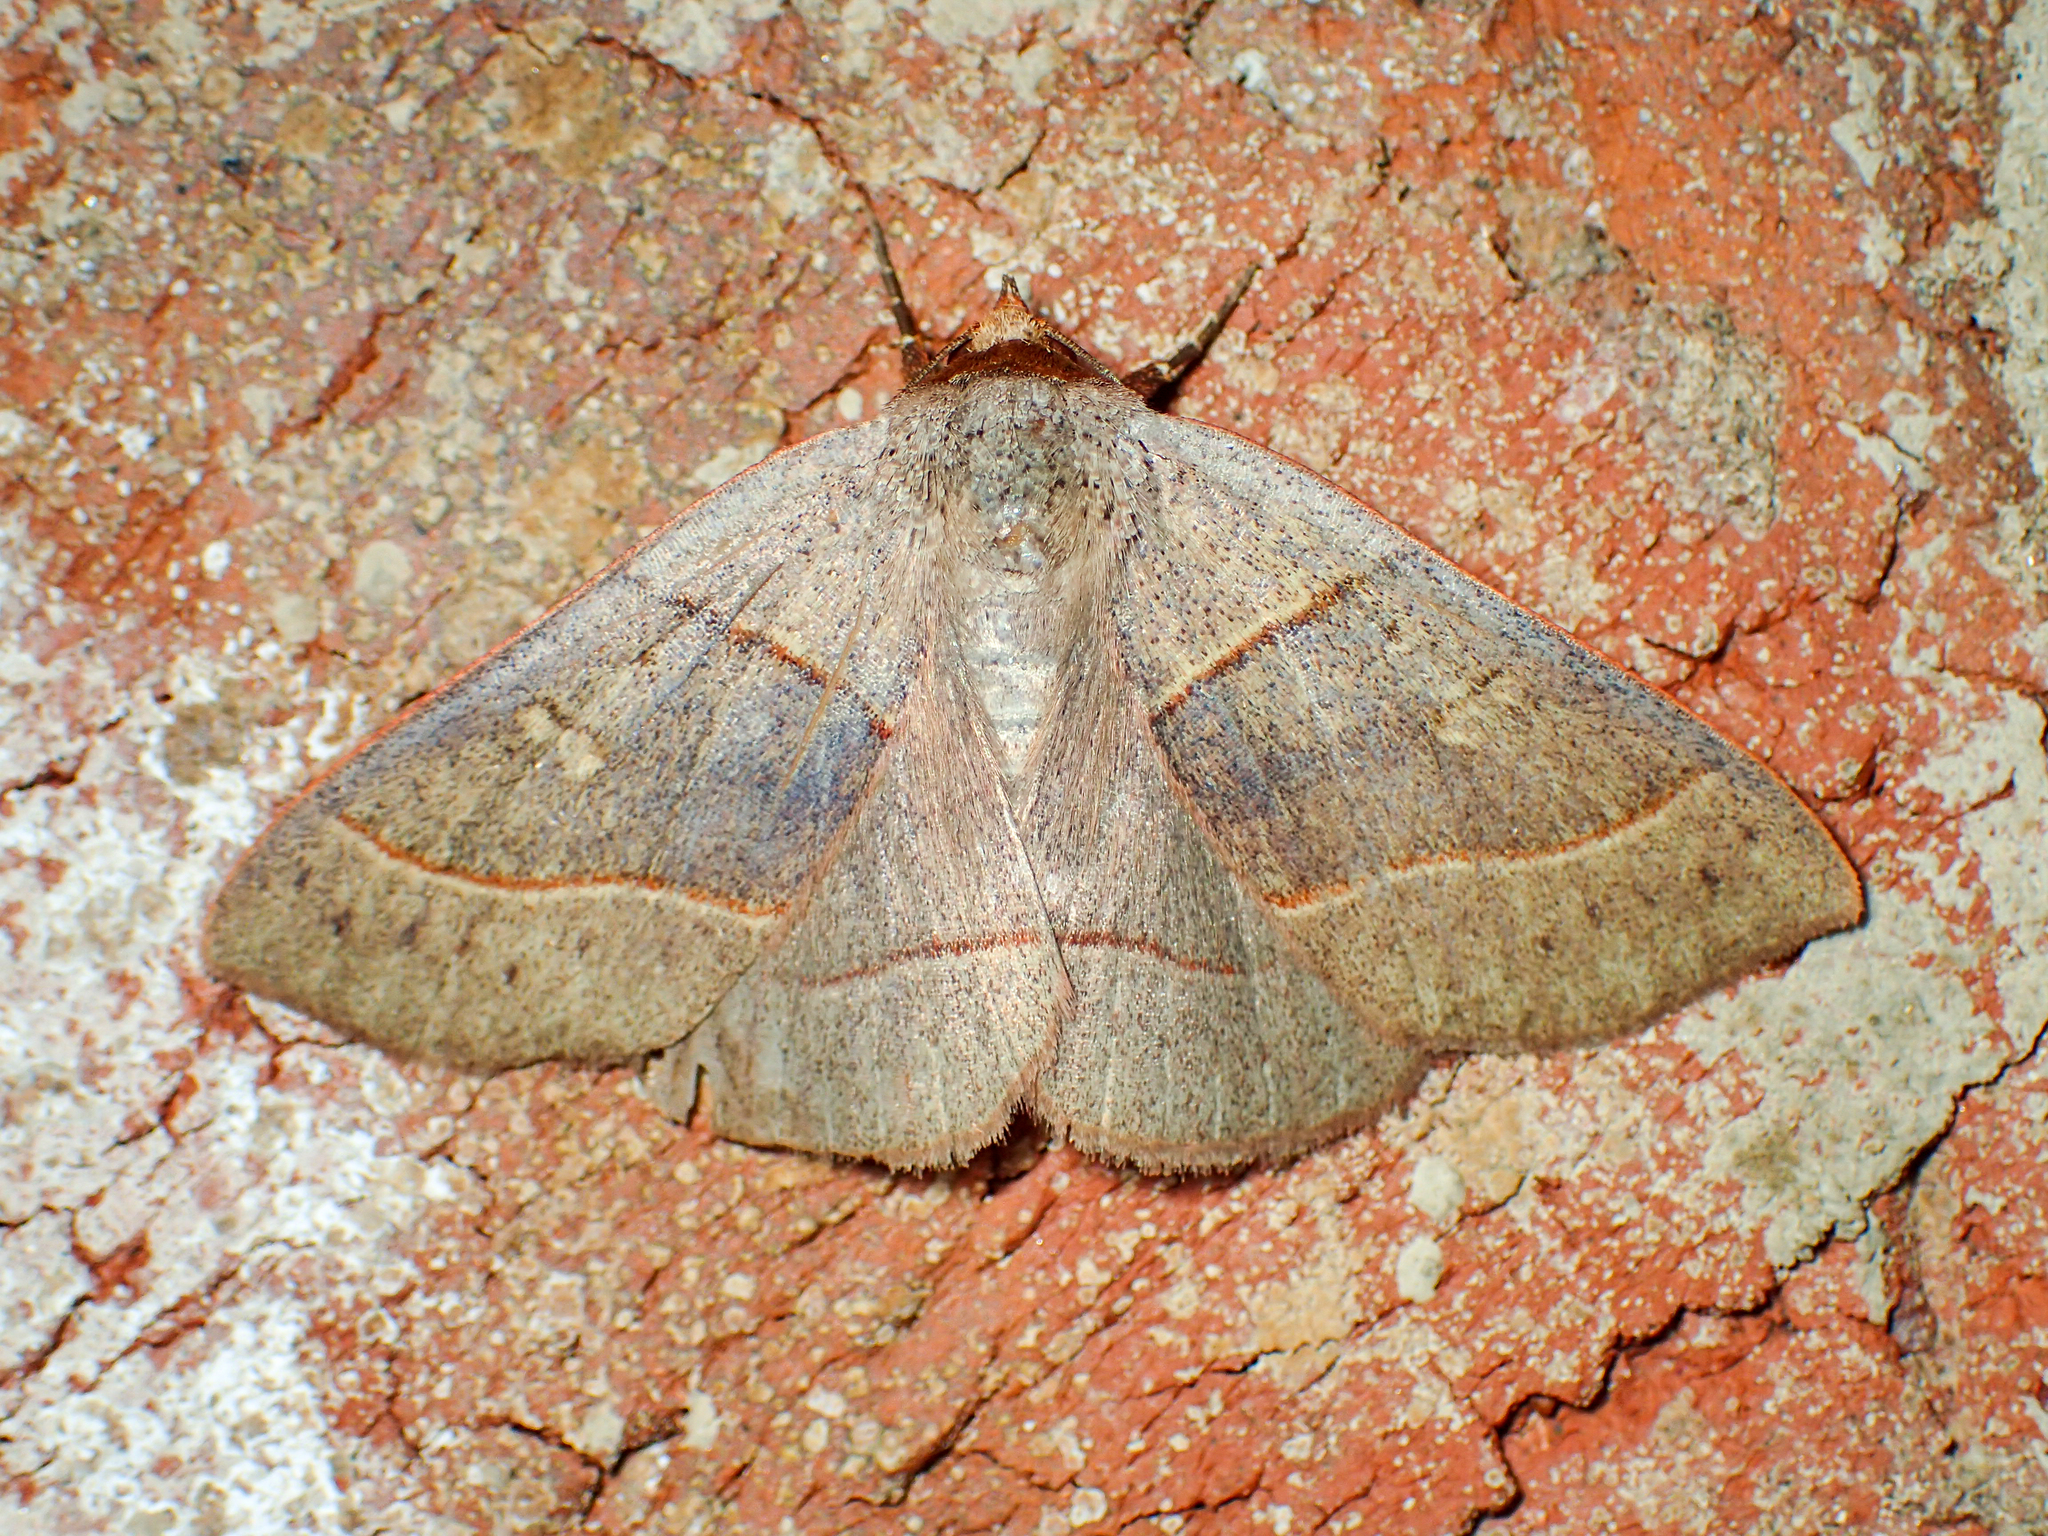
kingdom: Animalia
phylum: Arthropoda
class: Insecta
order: Lepidoptera
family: Erebidae
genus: Panopoda
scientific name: Panopoda rufimargo
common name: Red-lined panopoda moth
